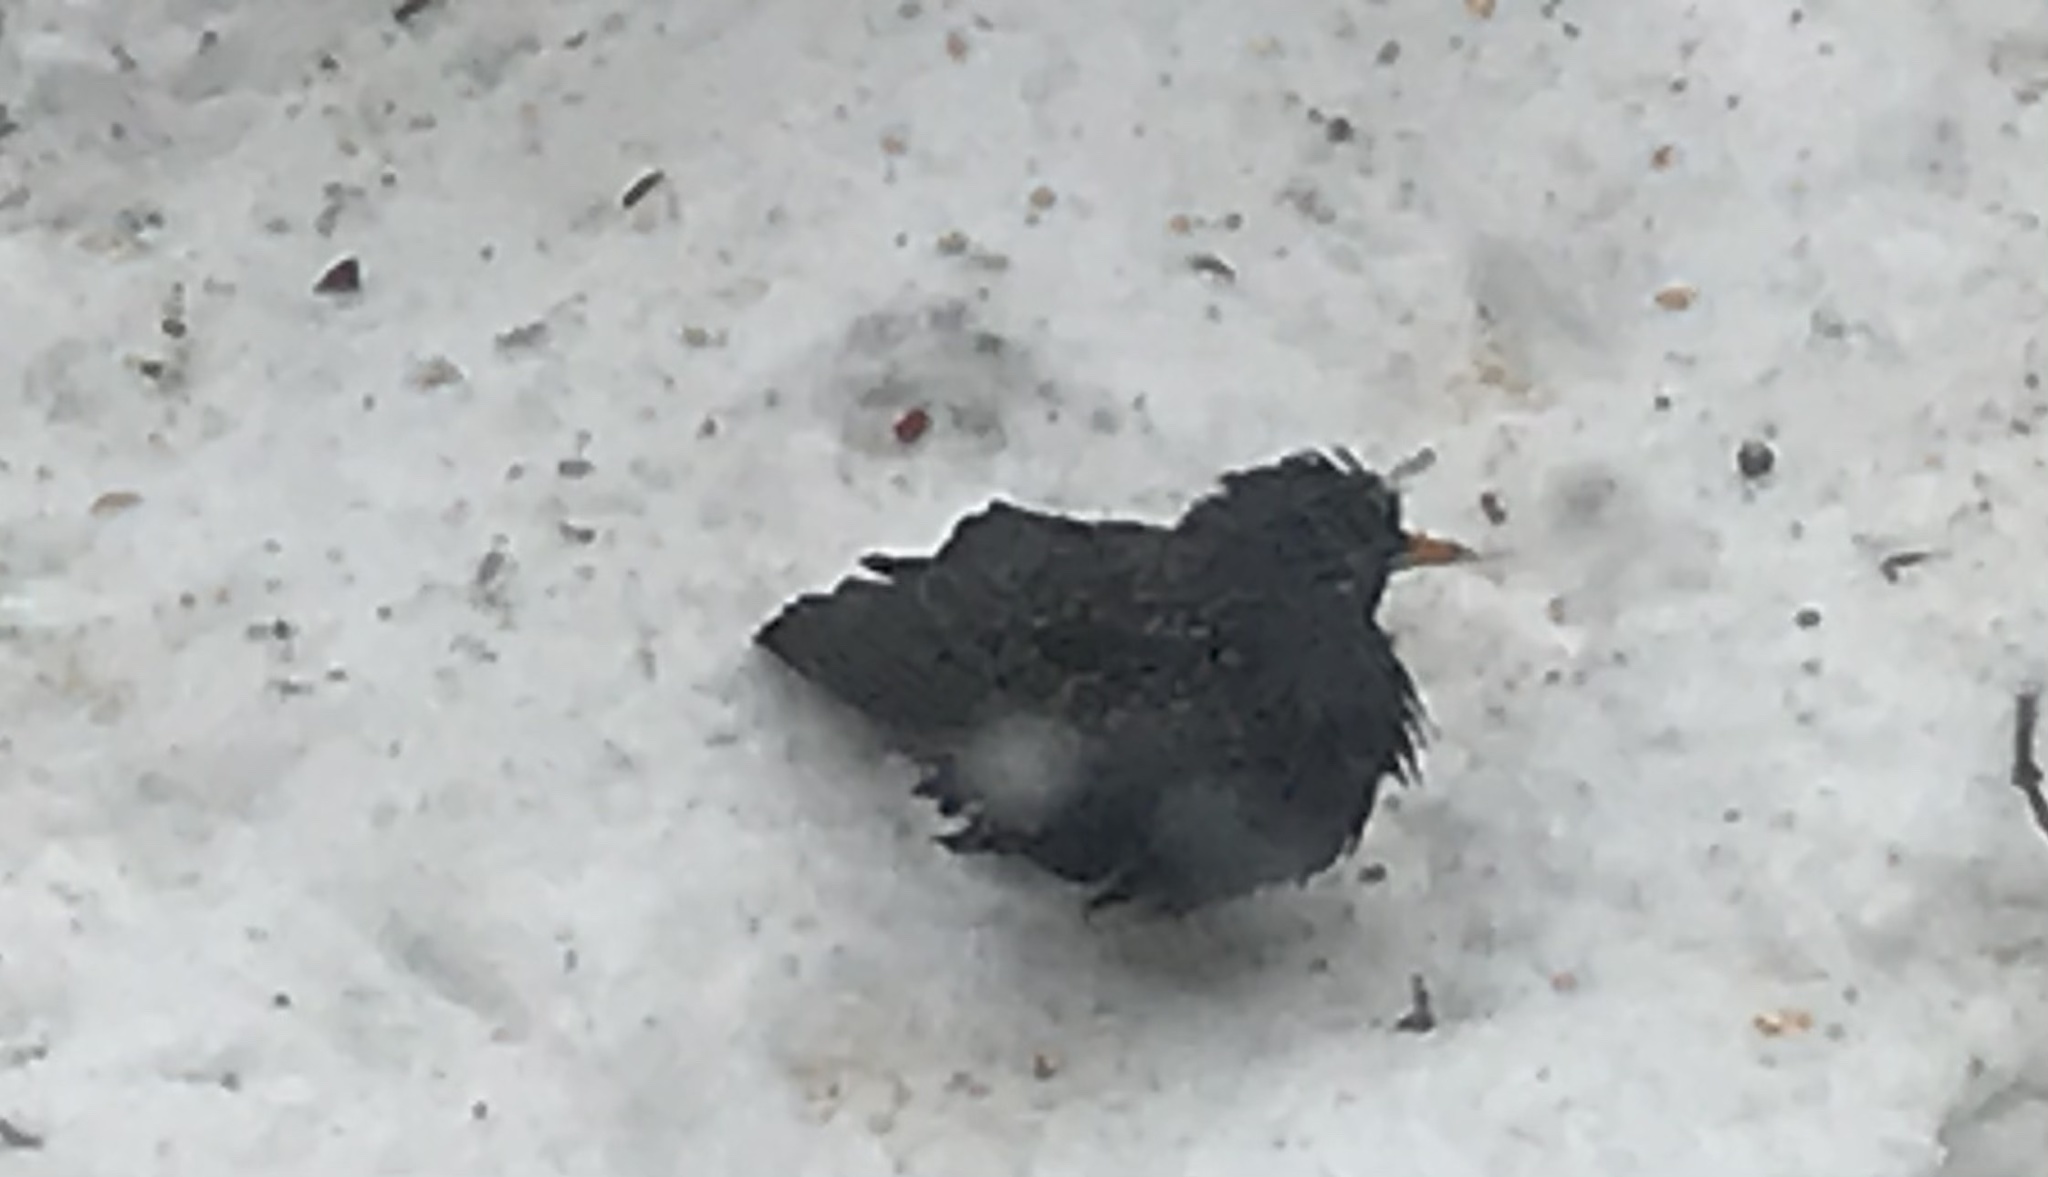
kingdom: Animalia
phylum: Chordata
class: Aves
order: Passeriformes
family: Sturnidae
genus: Sturnus
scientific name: Sturnus vulgaris
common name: Common starling
